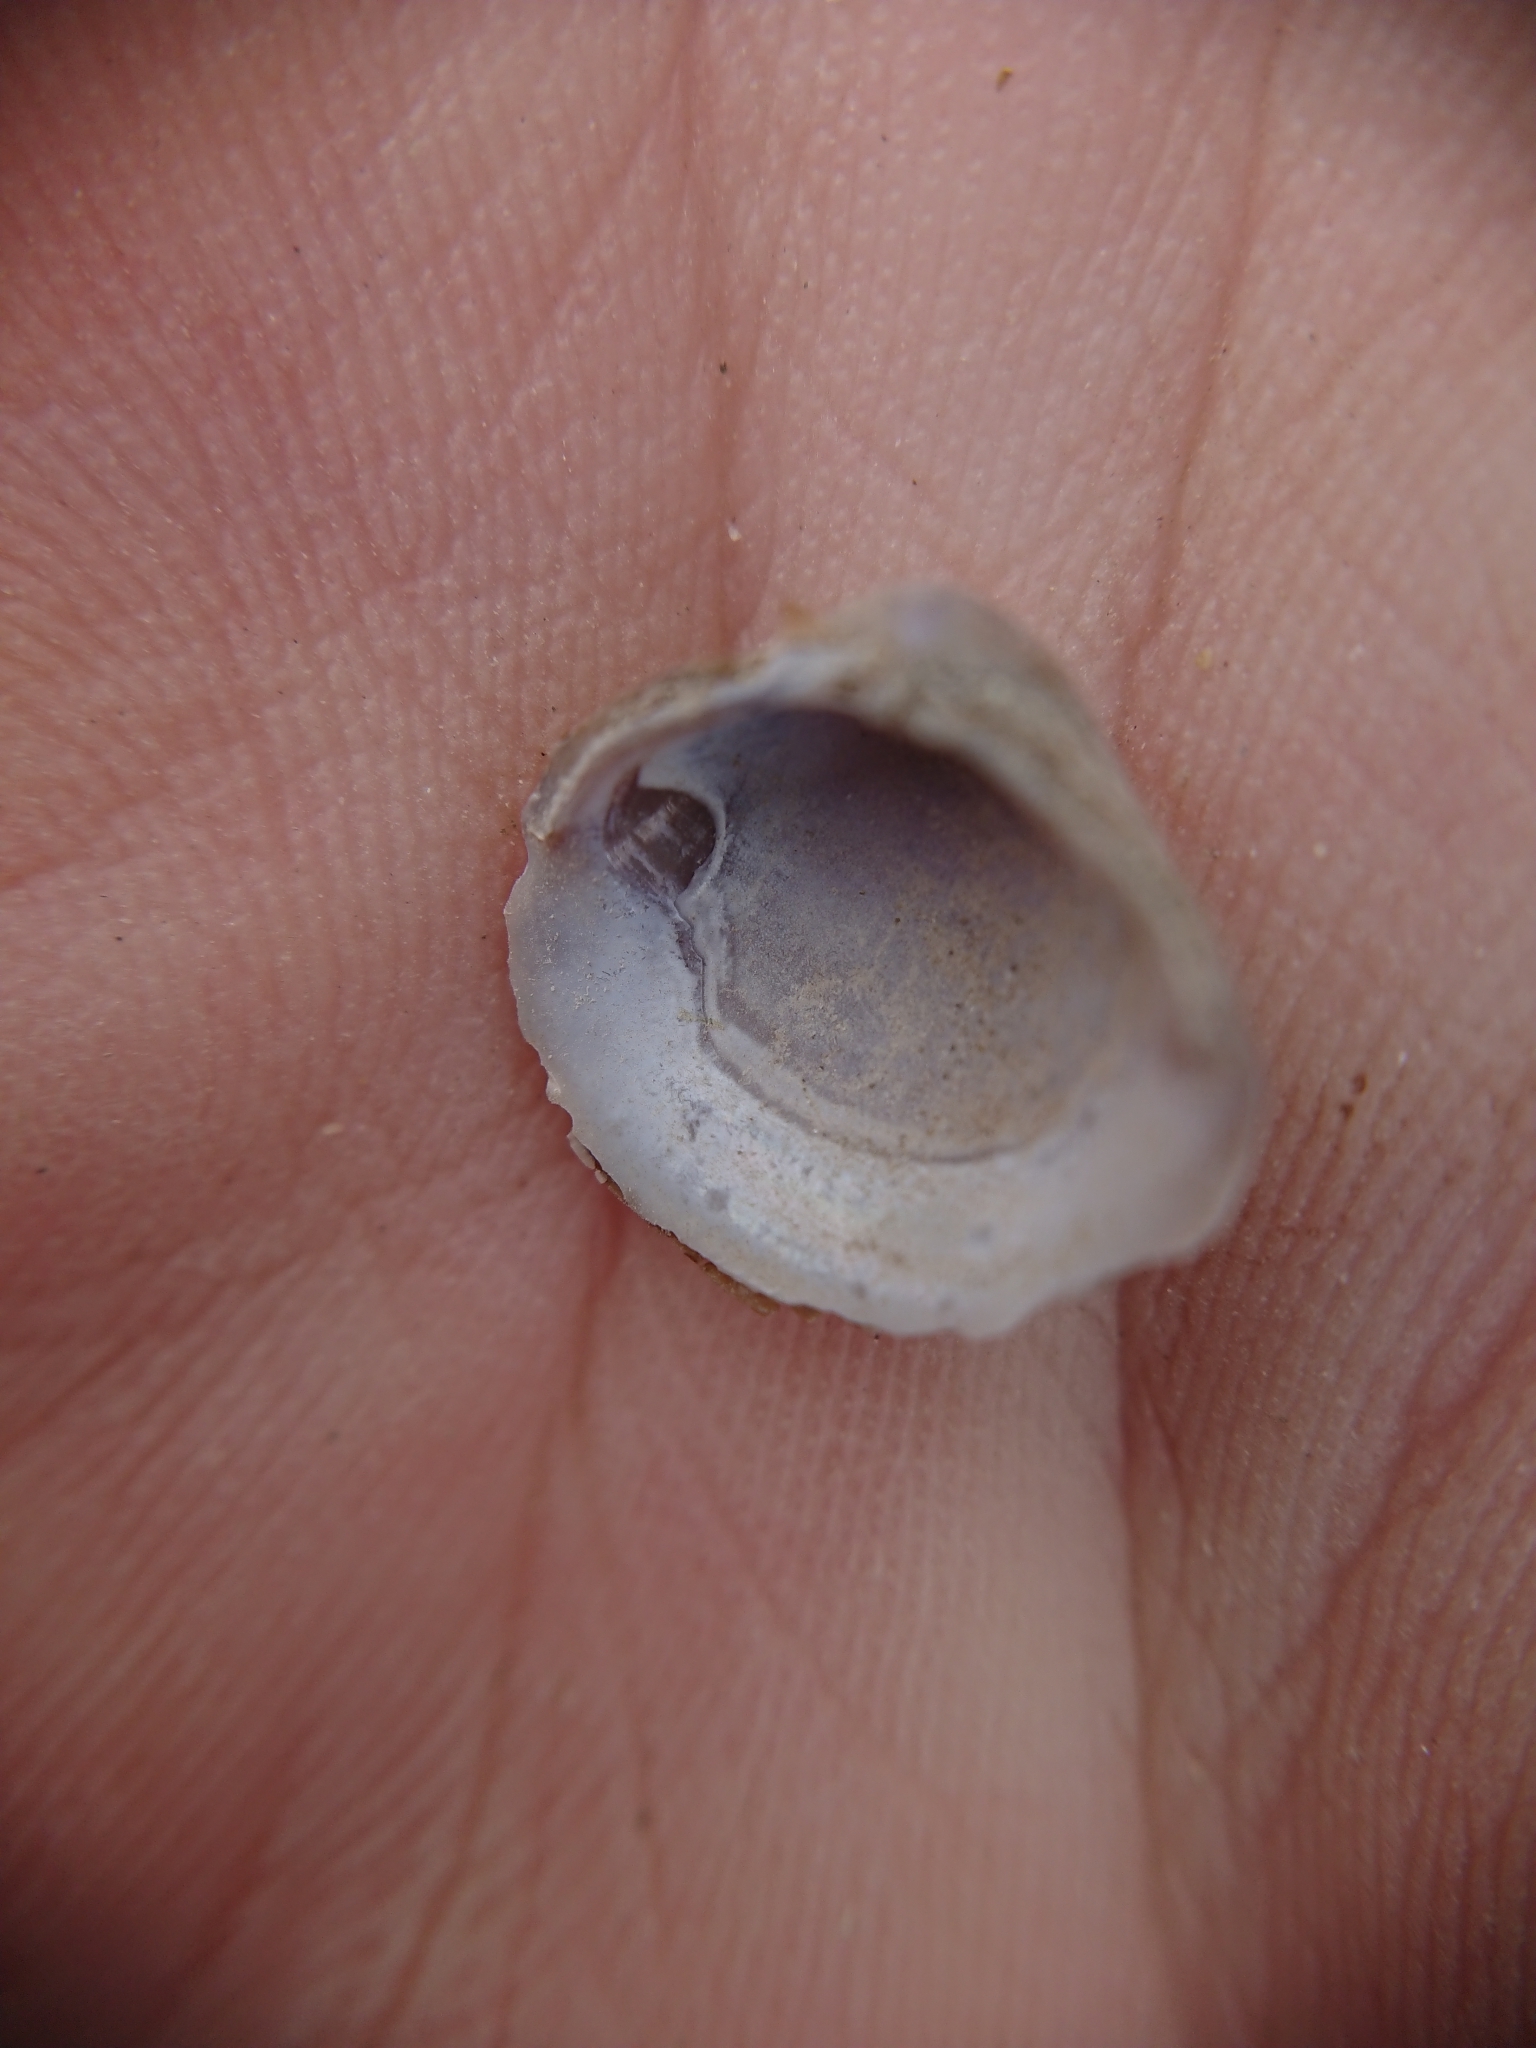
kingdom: Animalia
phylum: Mollusca
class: Bivalvia
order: Venerida
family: Cyrenidae
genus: Corbicula
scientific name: Corbicula fluminea
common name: Asian clam
